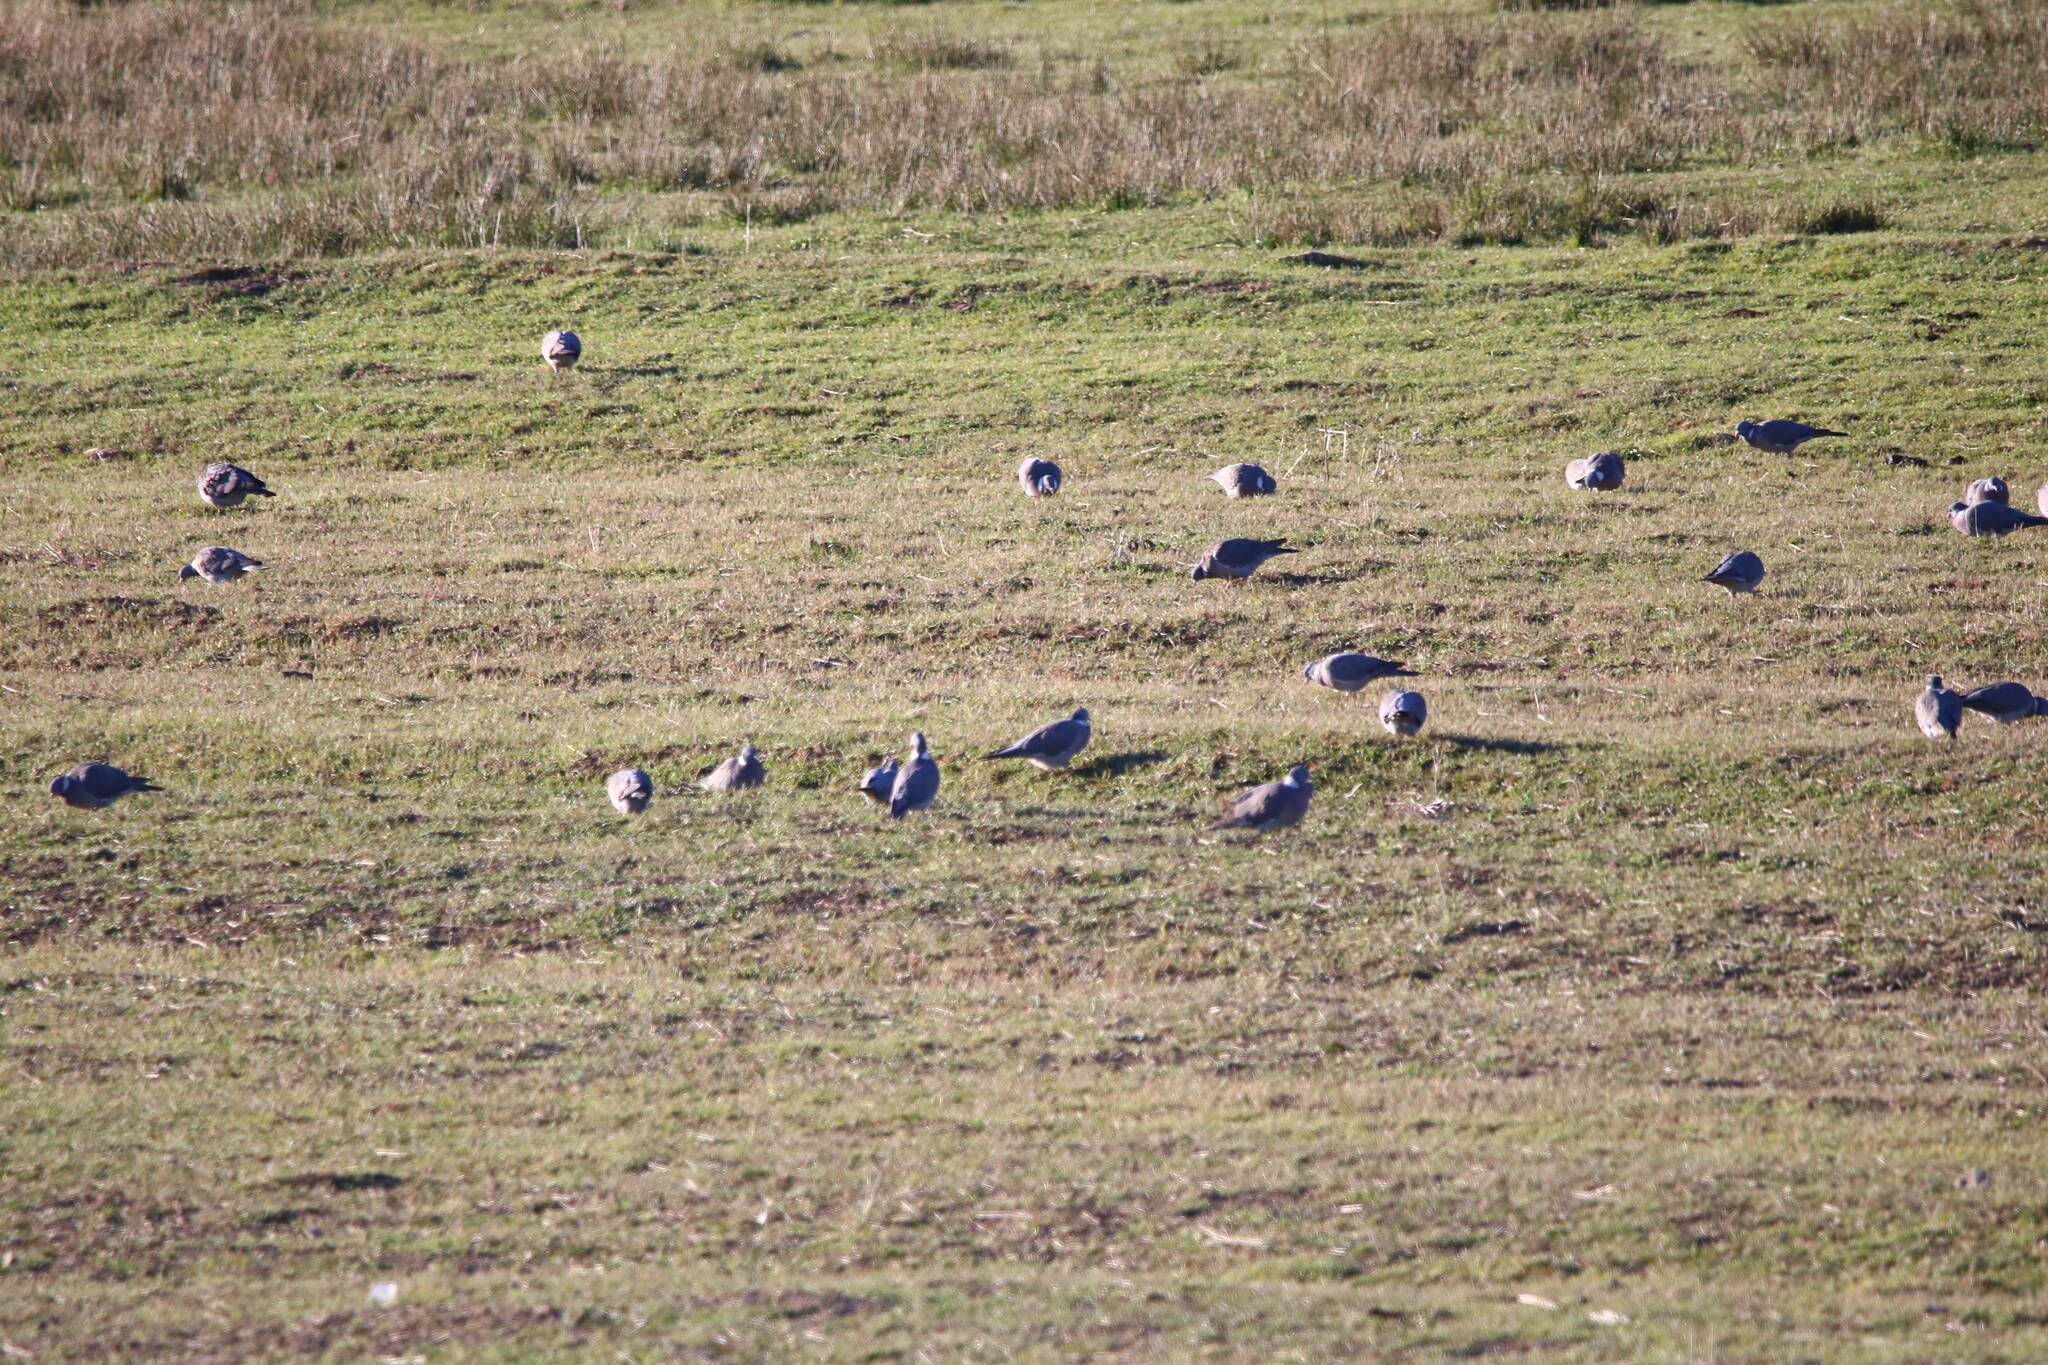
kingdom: Animalia
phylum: Chordata
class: Aves
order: Passeriformes
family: Corvidae
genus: Pica
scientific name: Pica mauritanica
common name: Maghreb magpie
